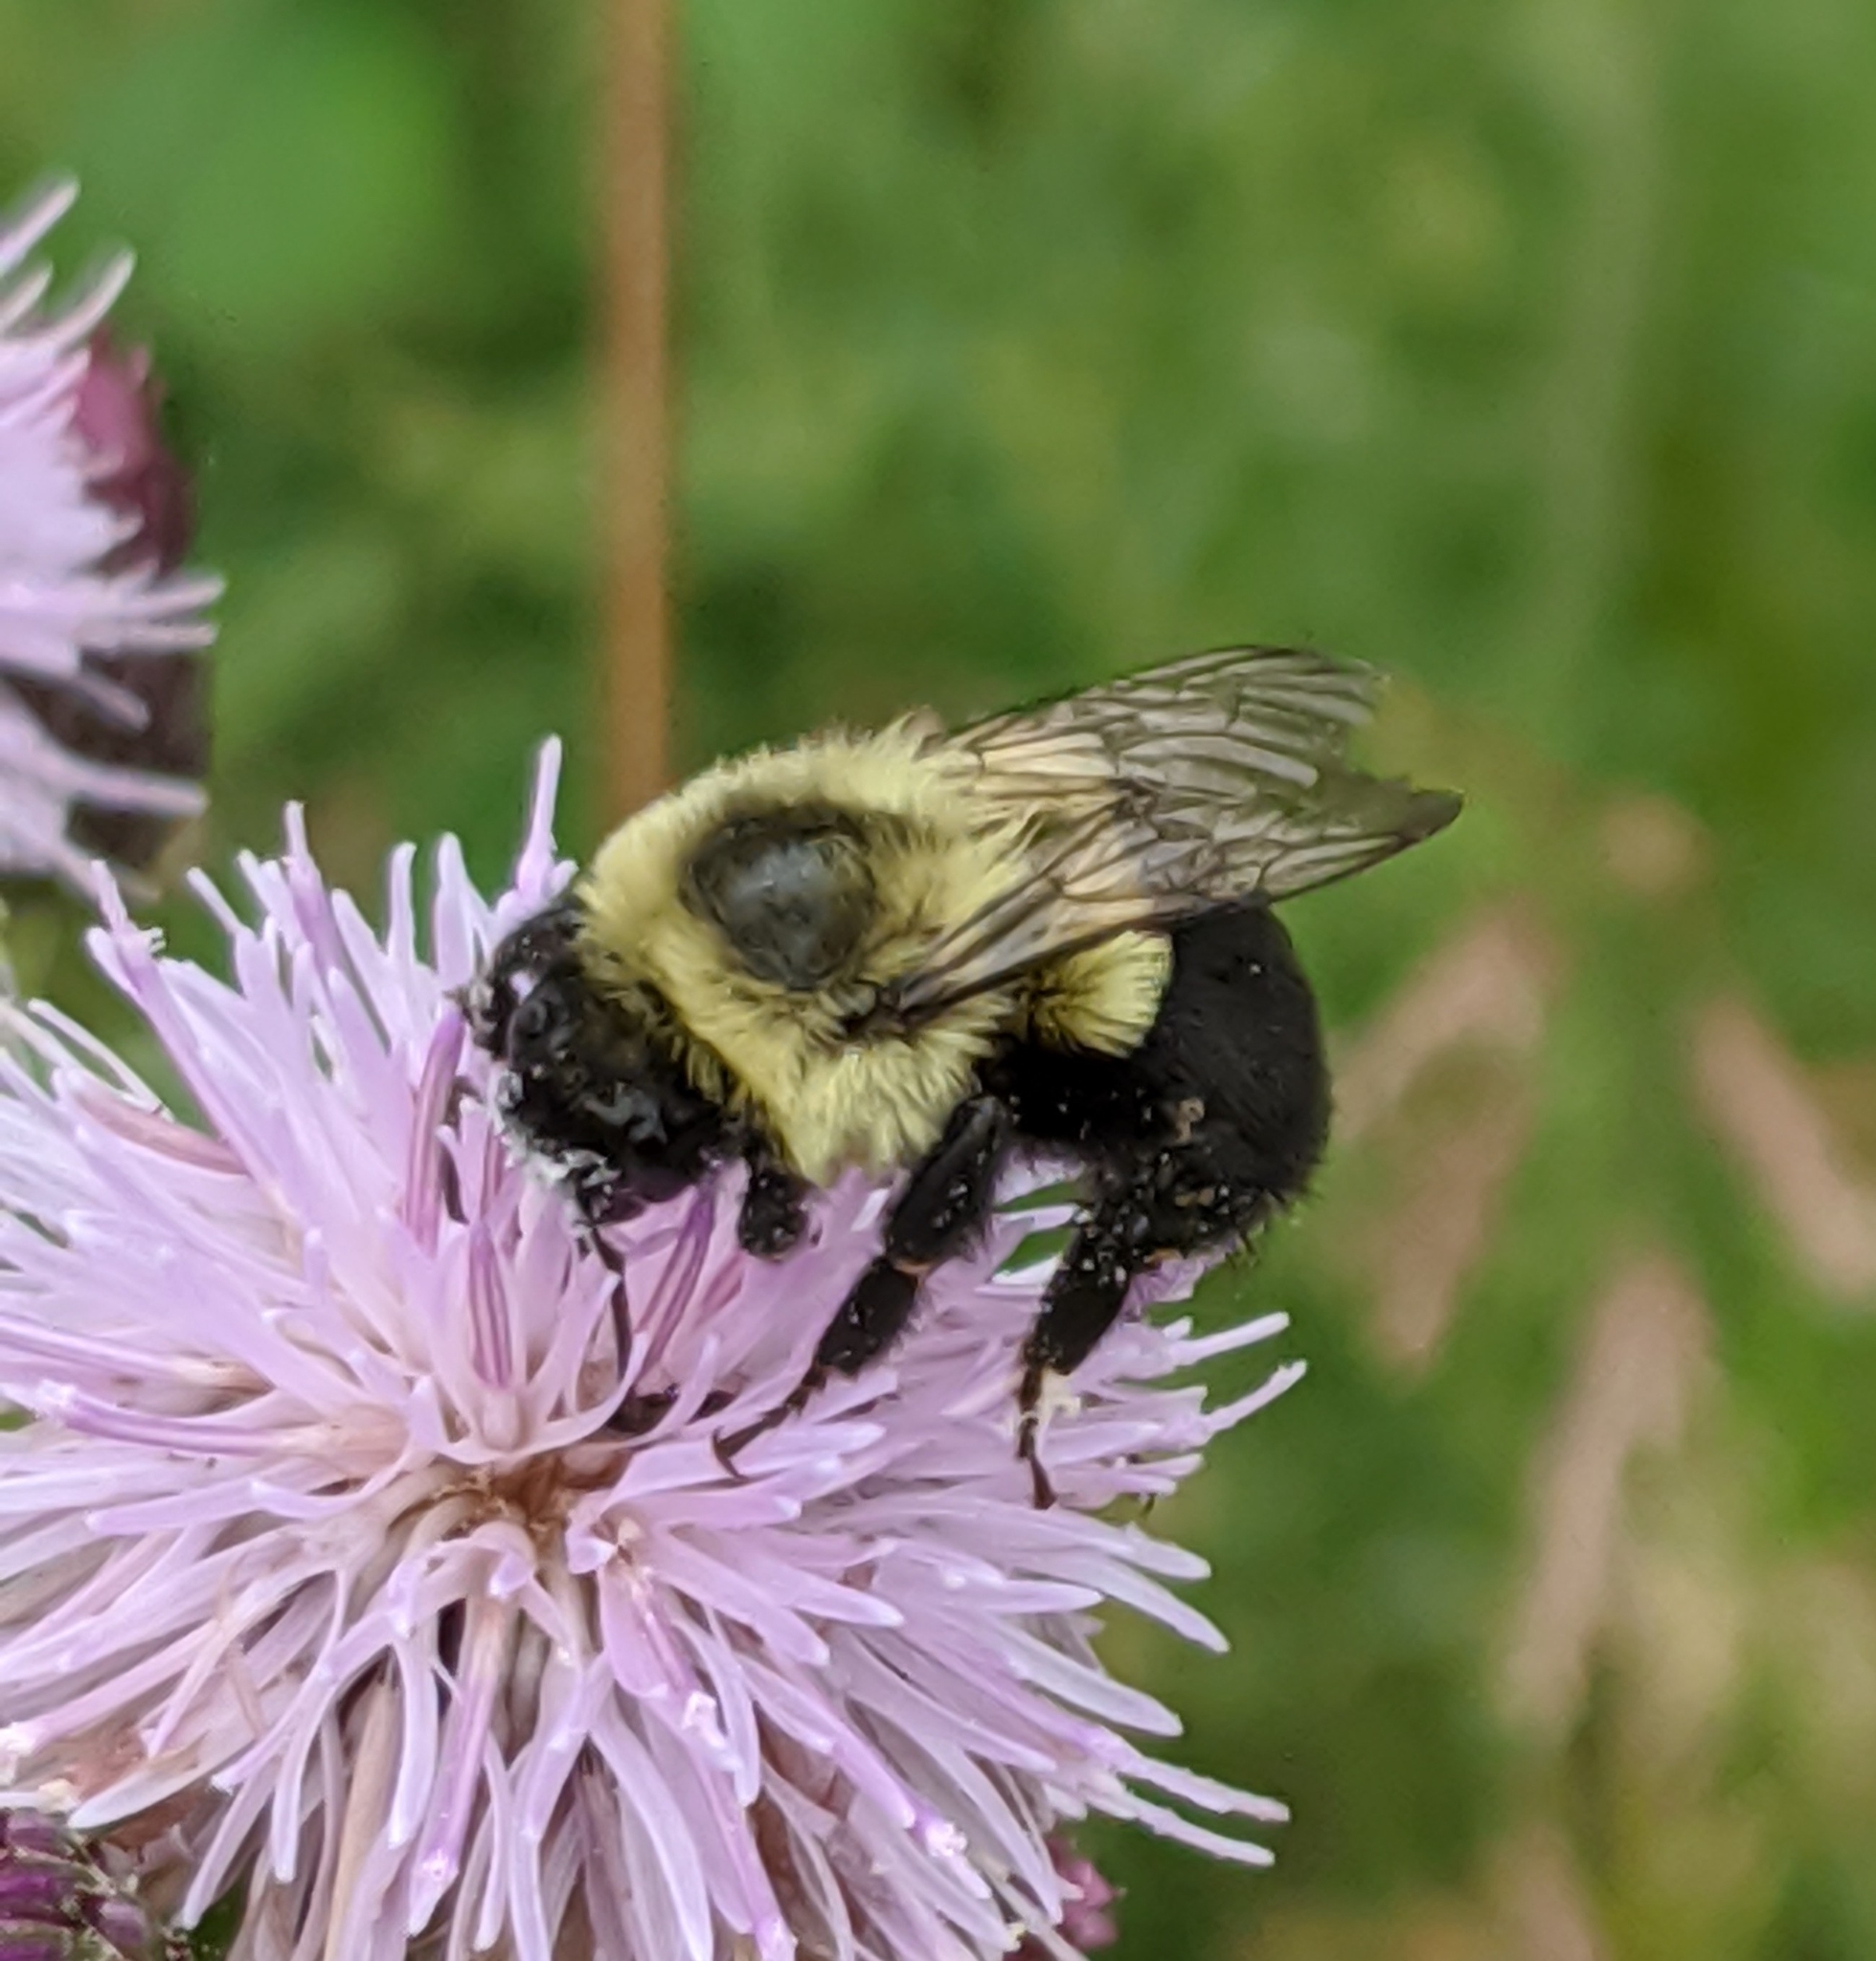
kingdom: Animalia
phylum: Arthropoda
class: Insecta
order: Hymenoptera
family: Apidae
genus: Bombus
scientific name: Bombus impatiens
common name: Common eastern bumble bee
